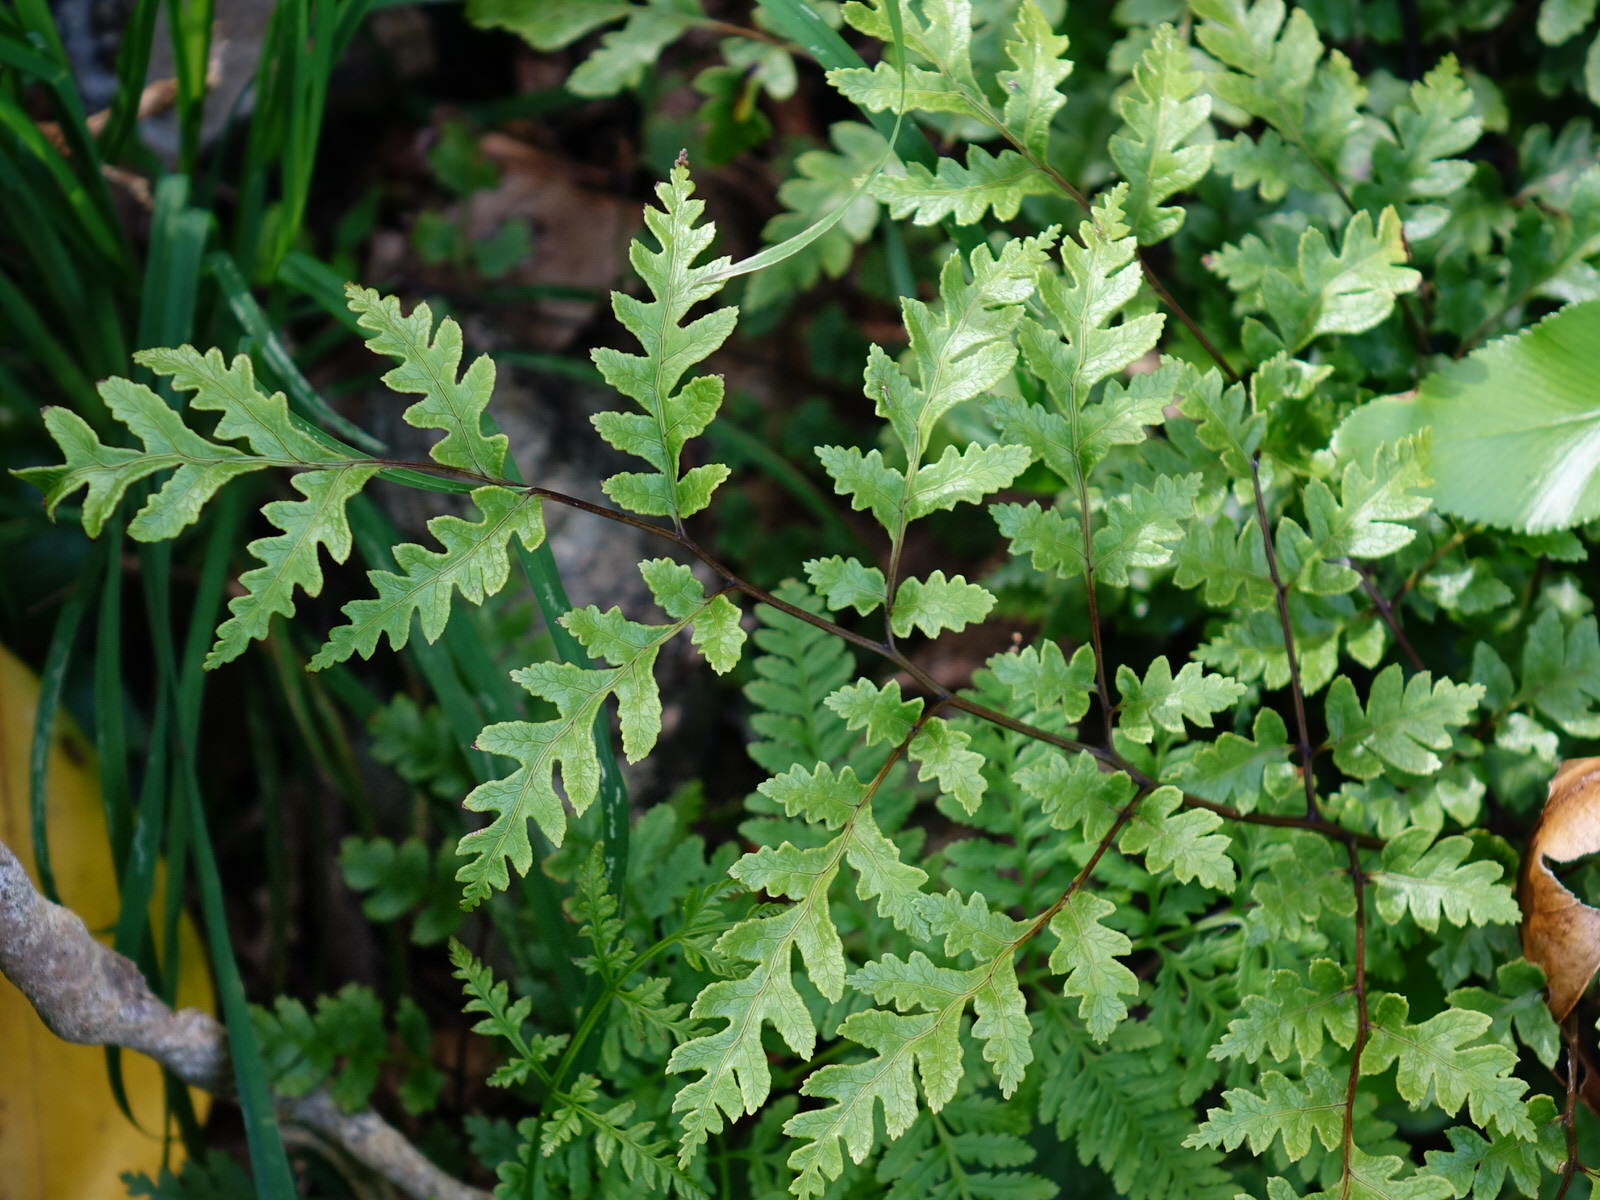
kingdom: Plantae
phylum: Tracheophyta
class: Polypodiopsida
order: Polypodiales
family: Pteridaceae
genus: Pteris
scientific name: Pteris saxatilis
